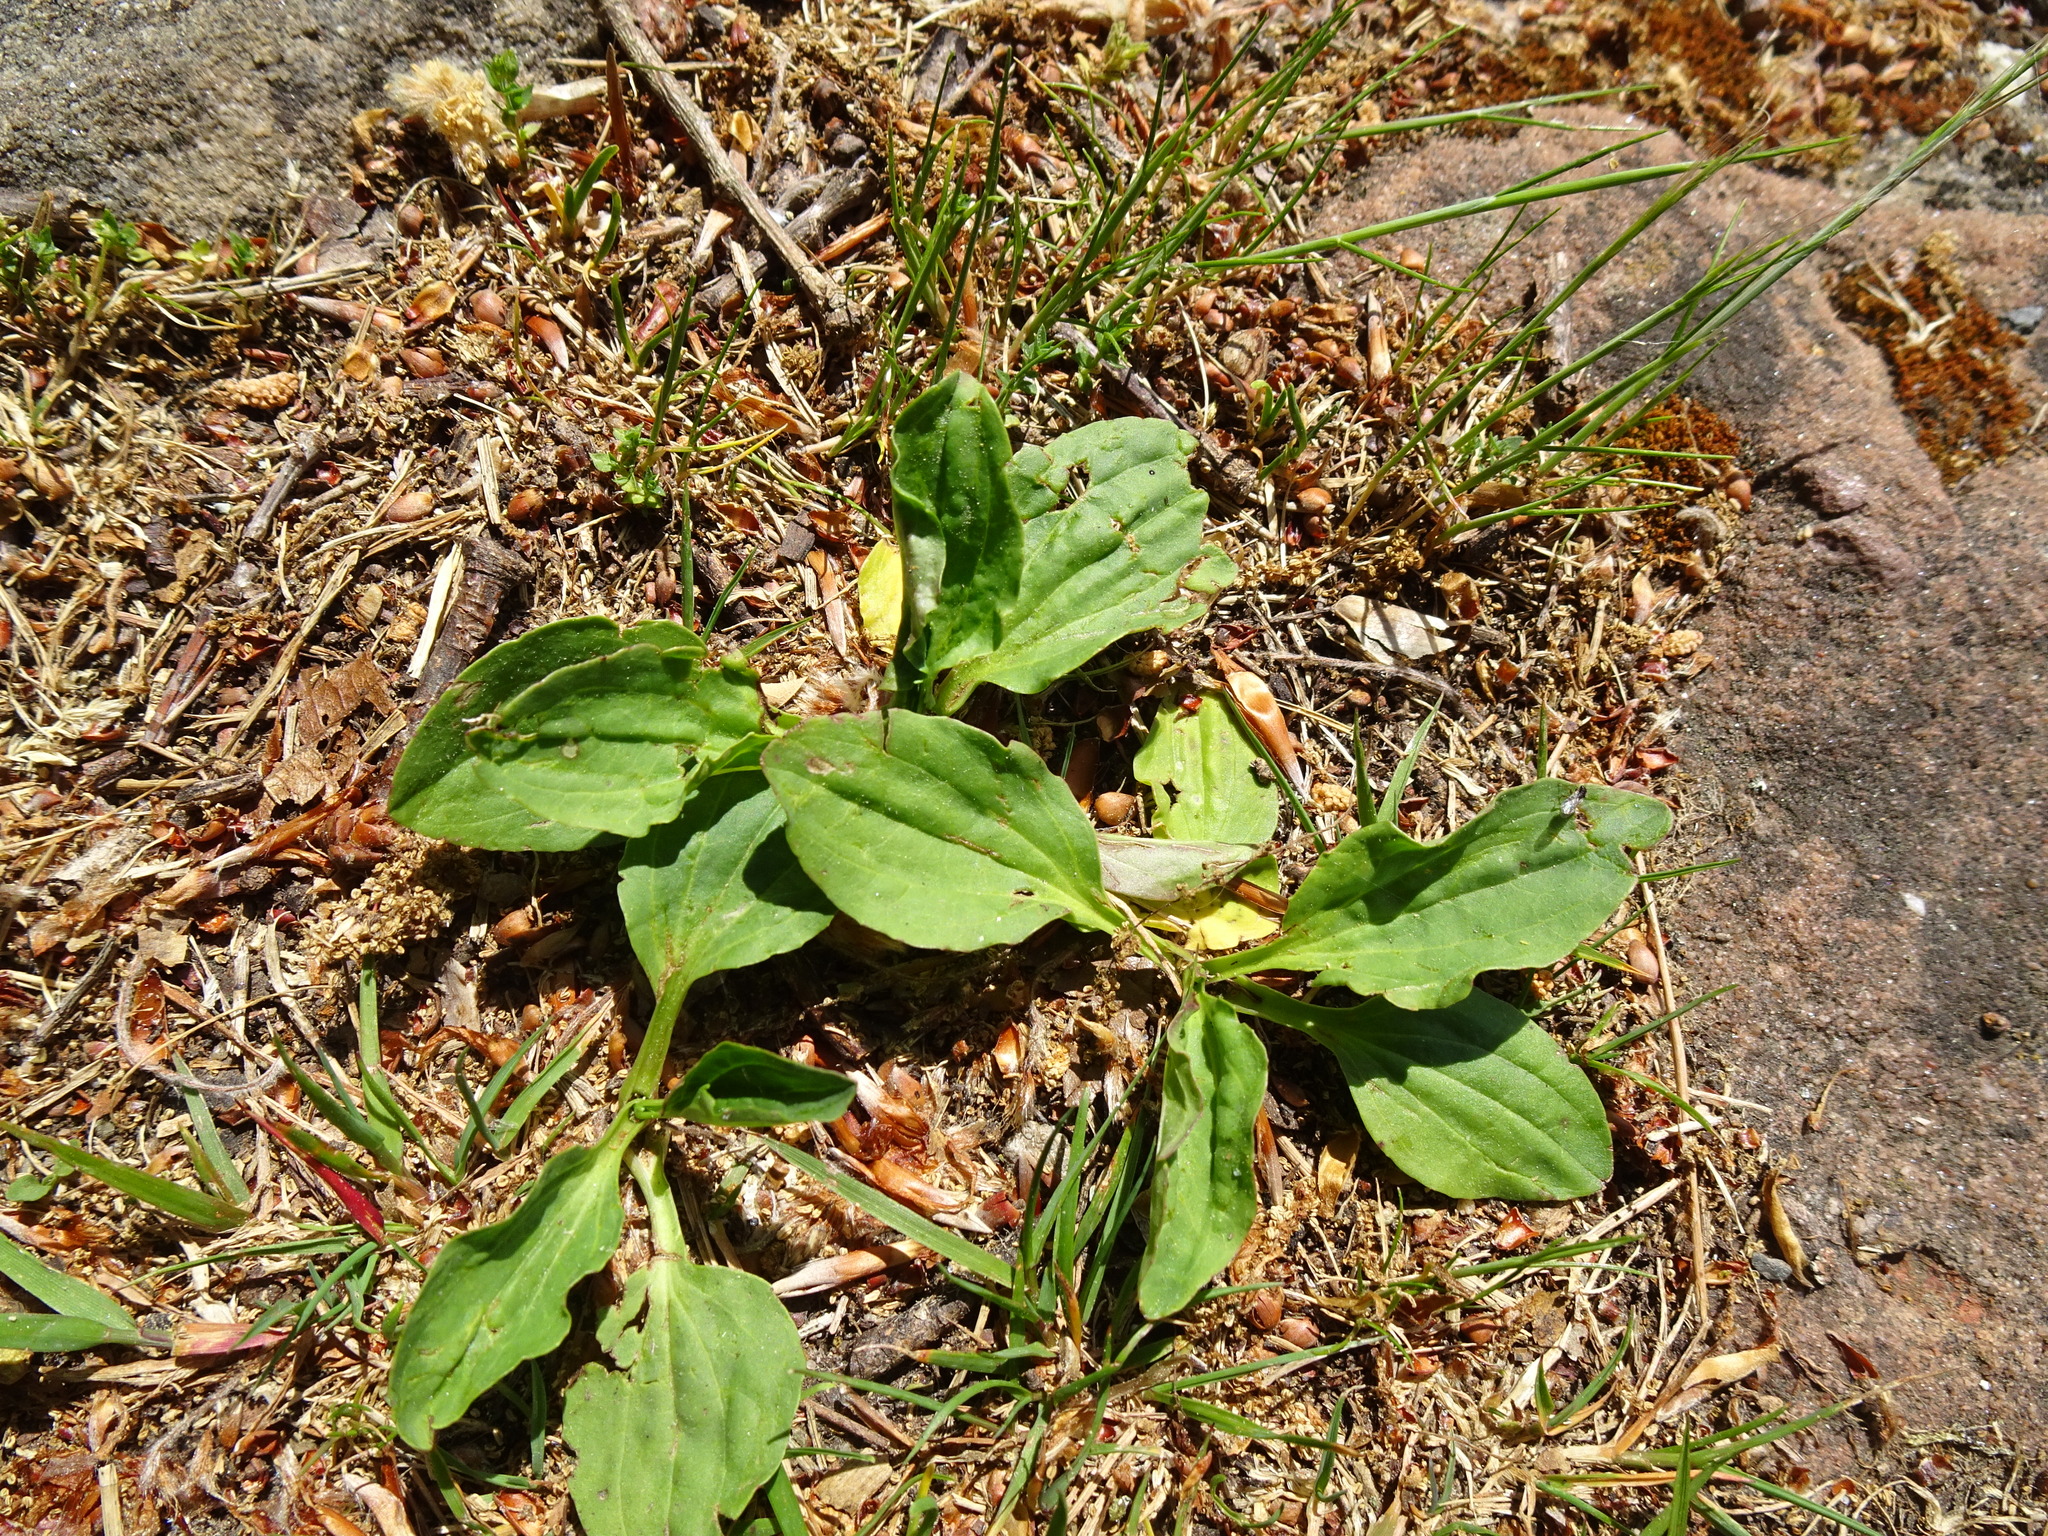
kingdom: Plantae
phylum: Tracheophyta
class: Magnoliopsida
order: Lamiales
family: Plantaginaceae
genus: Plantago
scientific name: Plantago major
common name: Common plantain
